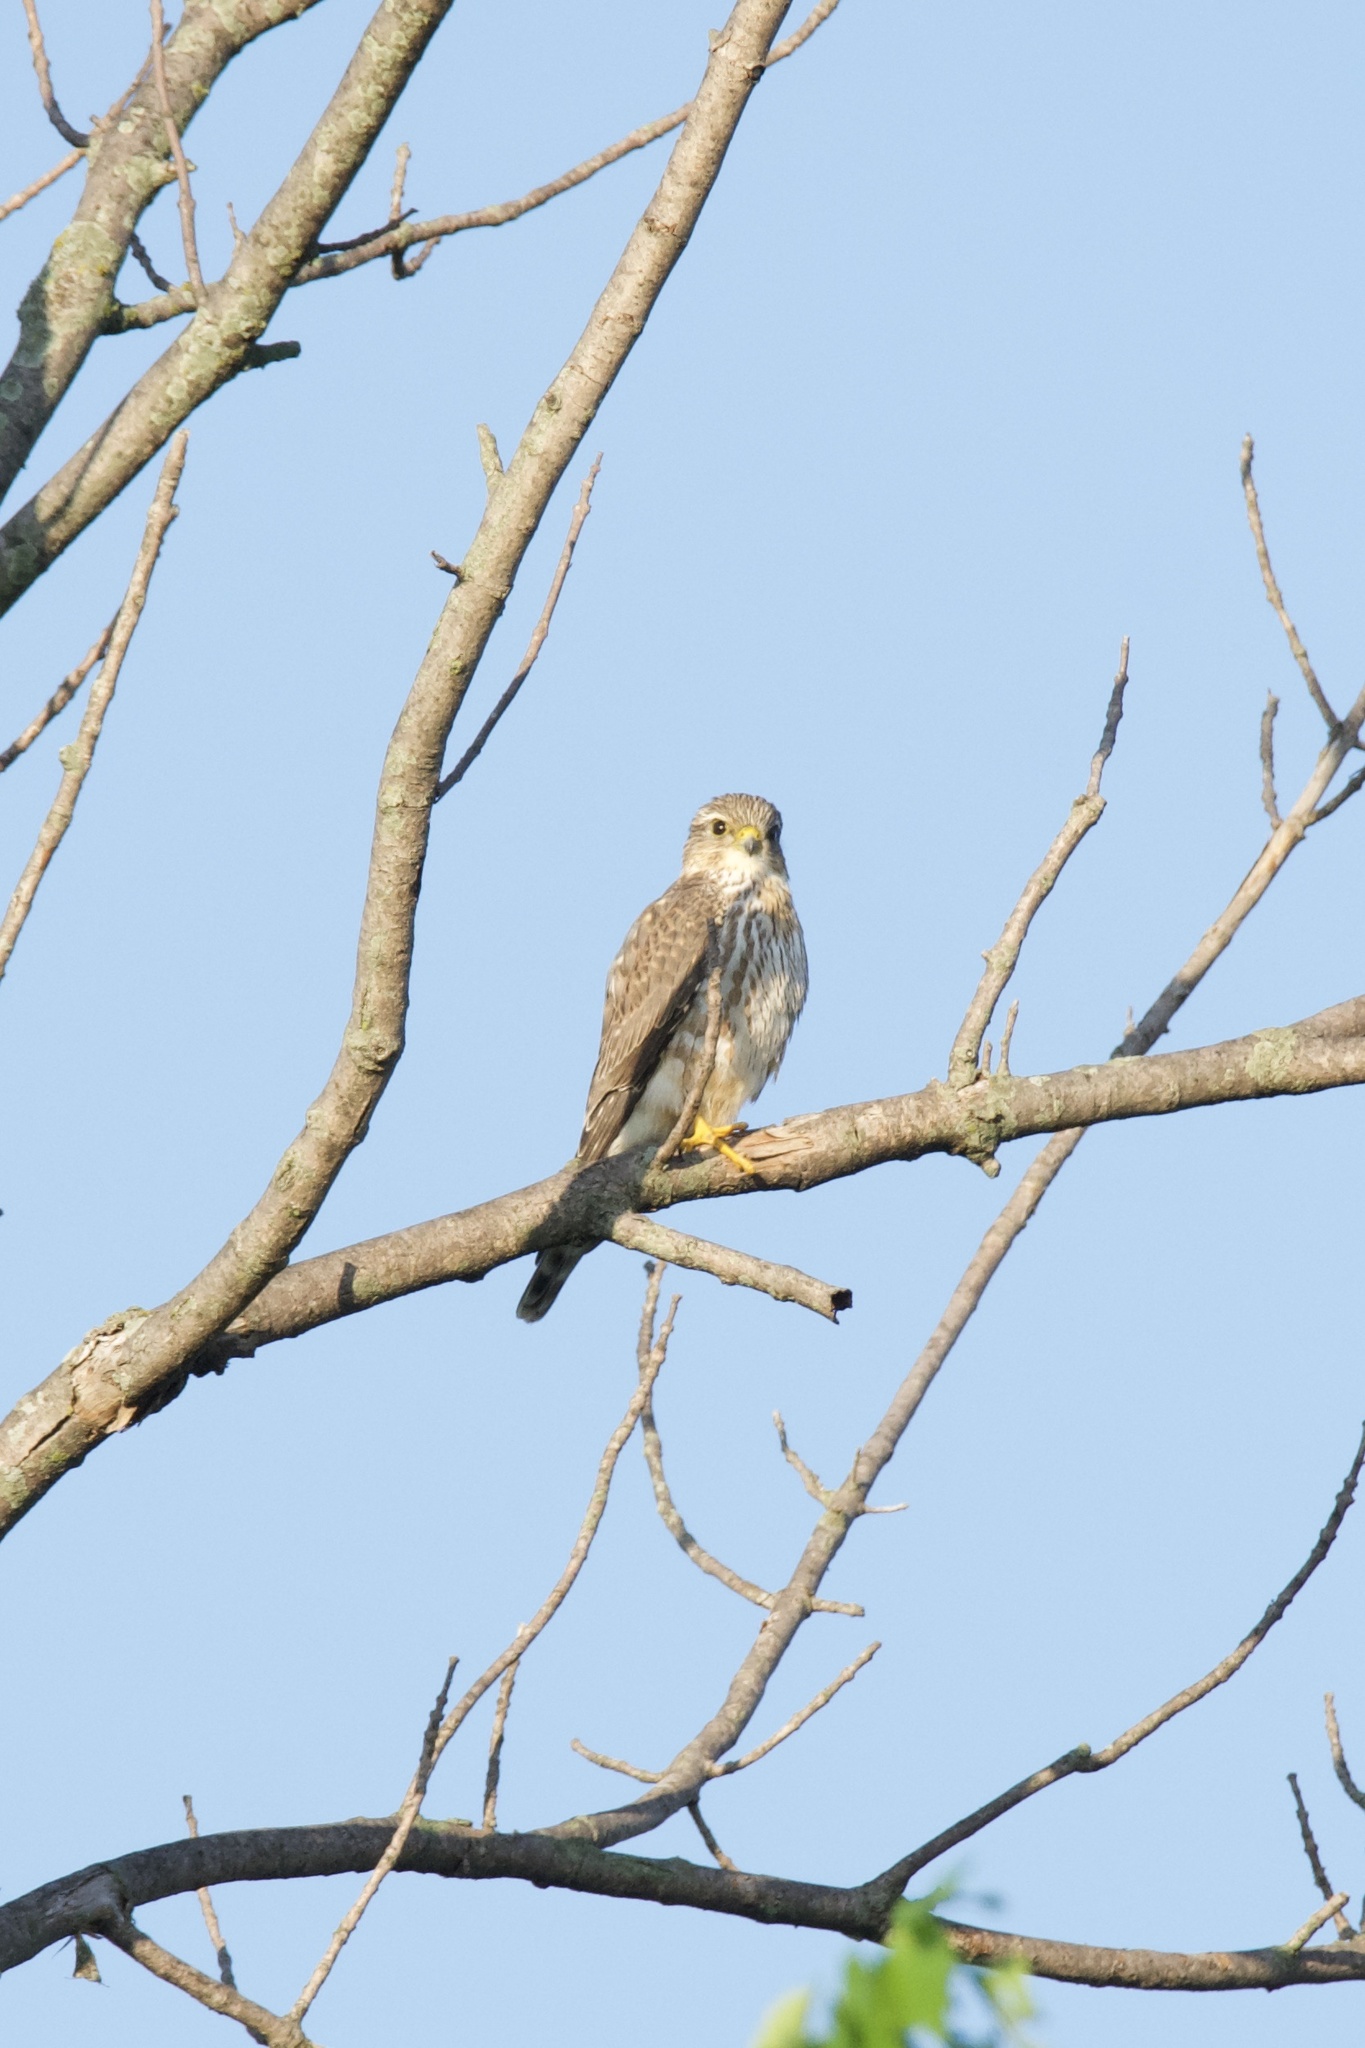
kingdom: Animalia
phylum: Chordata
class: Aves
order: Falconiformes
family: Falconidae
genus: Falco
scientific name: Falco columbarius
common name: Merlin
